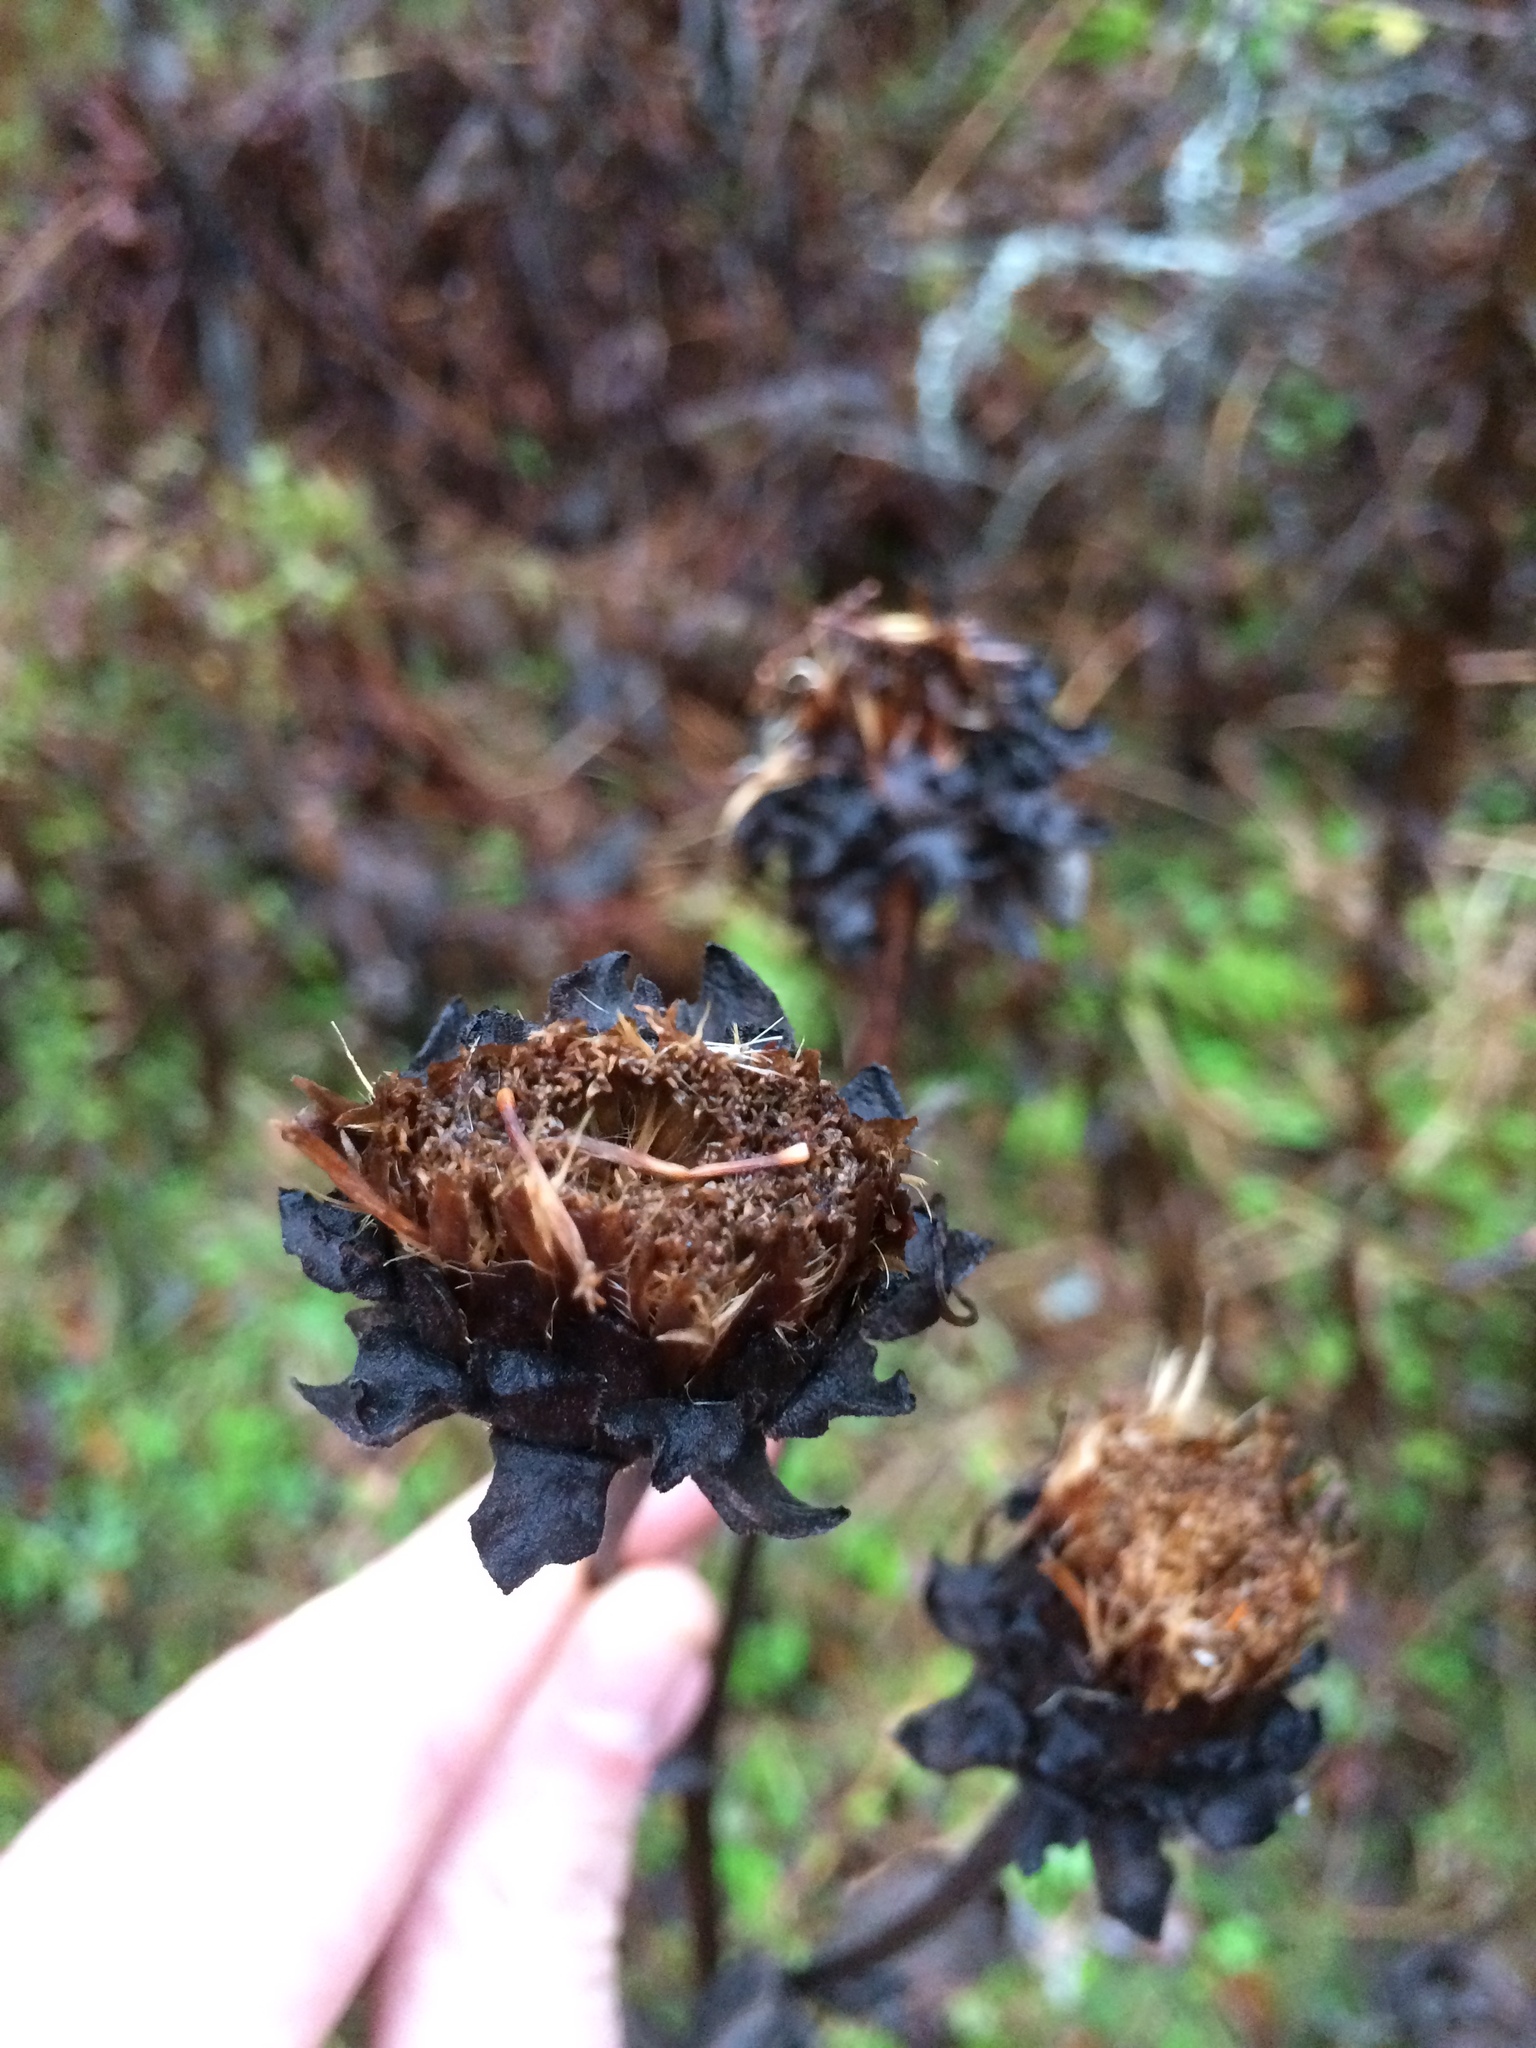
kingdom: Plantae
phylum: Tracheophyta
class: Magnoliopsida
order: Asterales
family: Asteraceae
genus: Inula
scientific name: Inula helenium
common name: Elecampane
